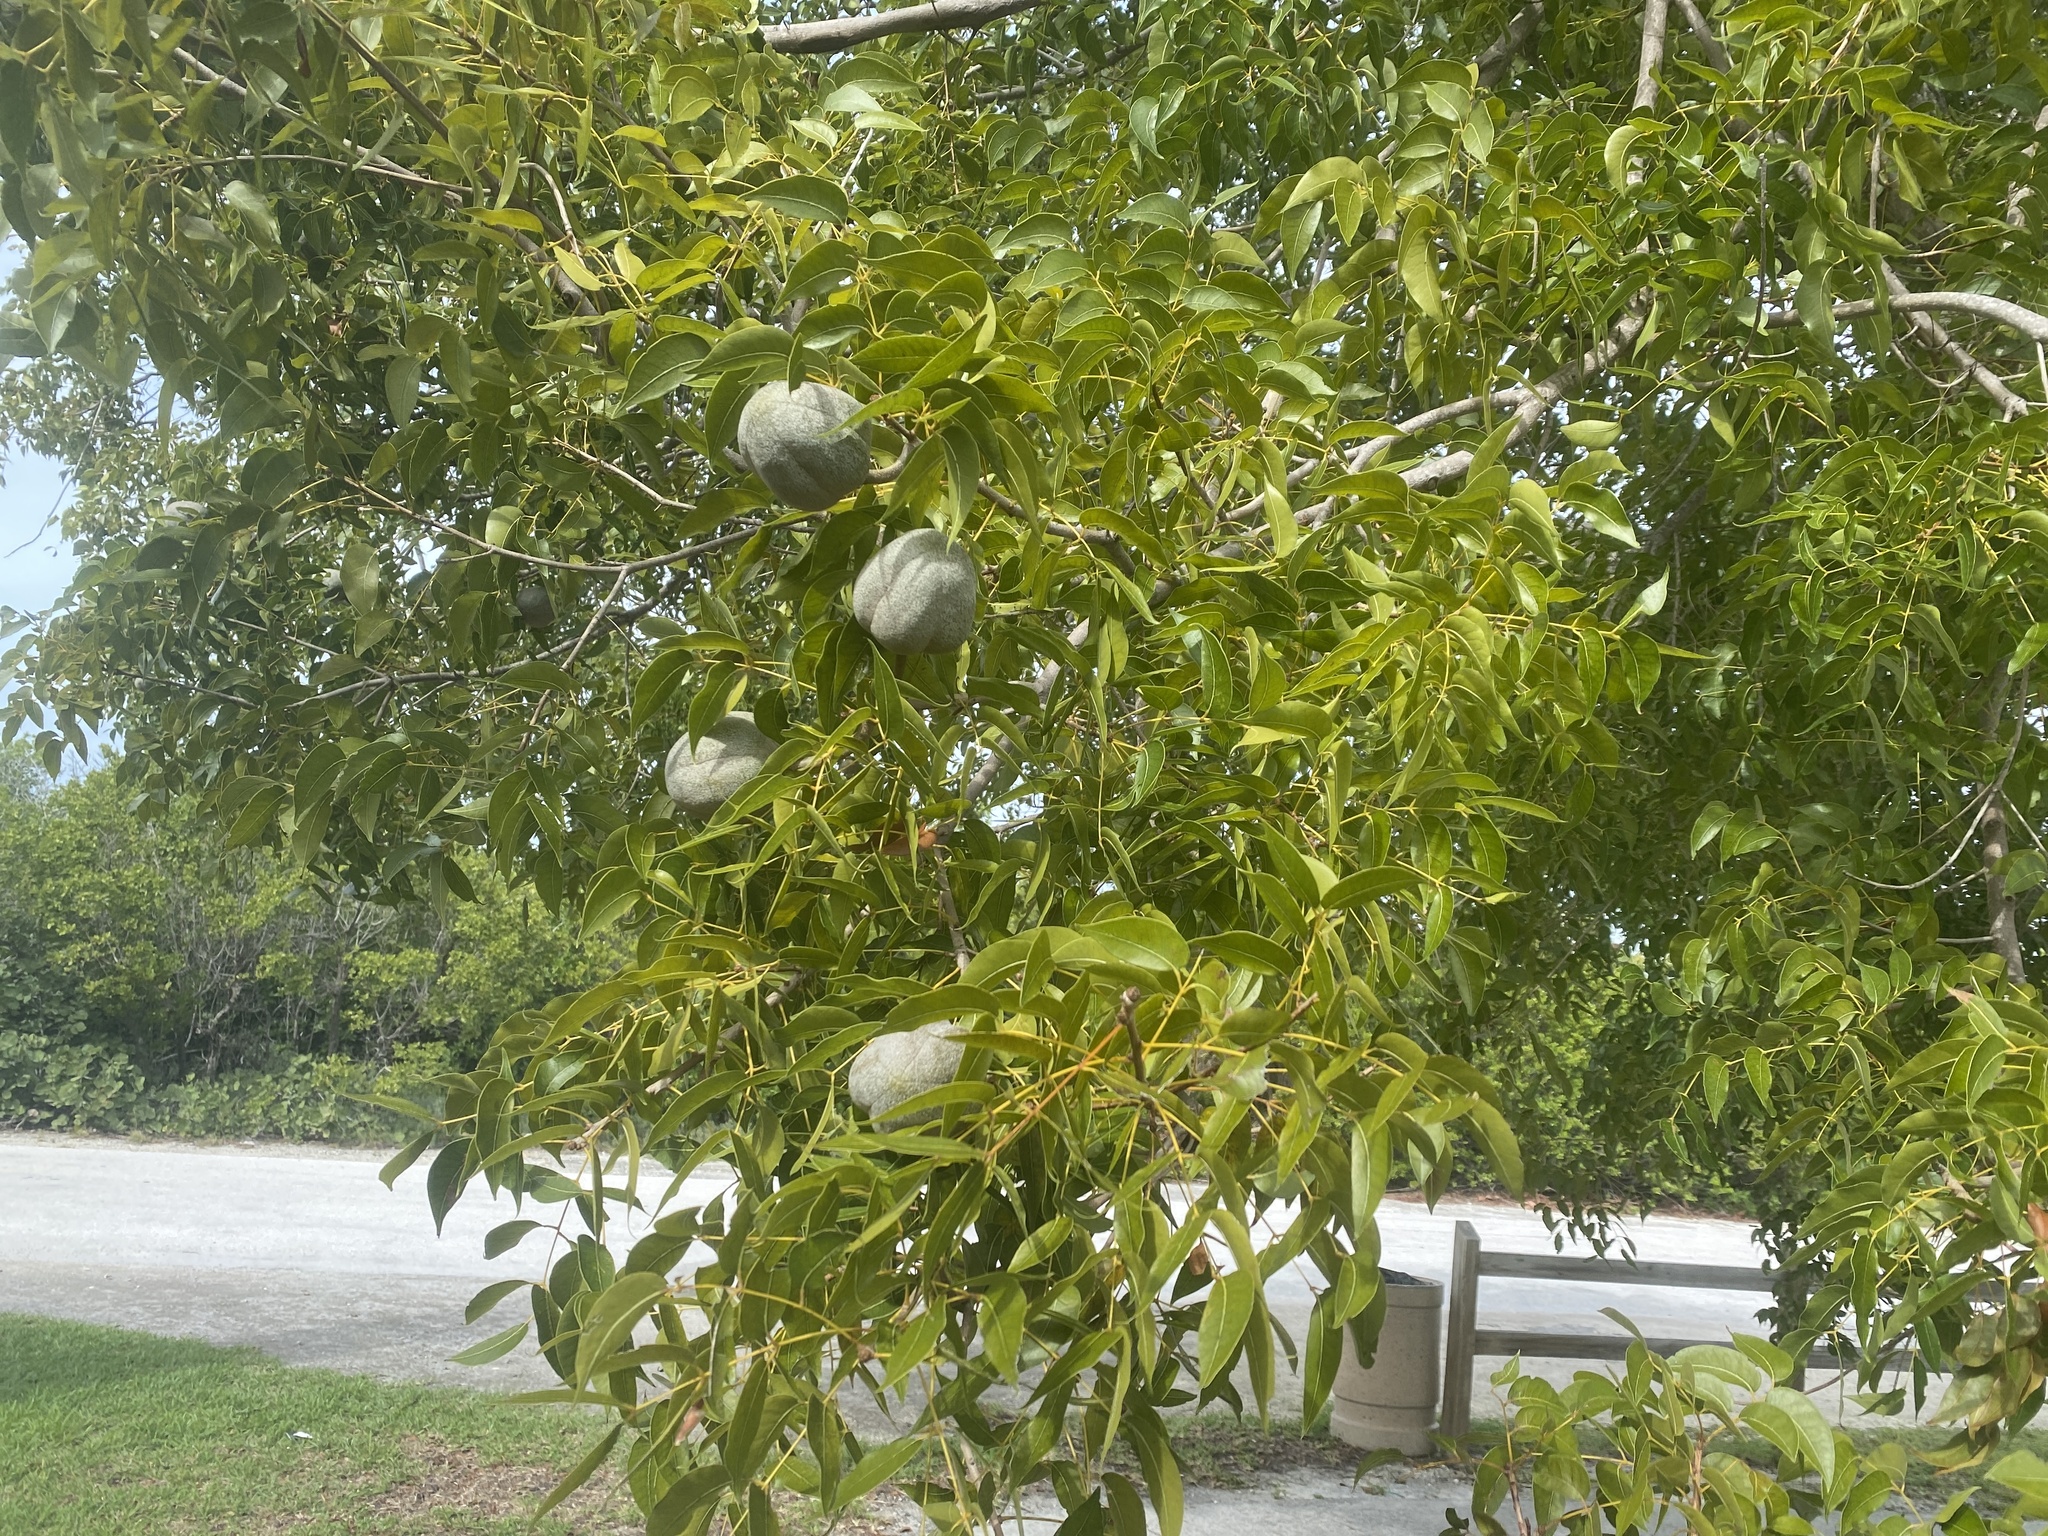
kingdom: Plantae
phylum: Tracheophyta
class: Magnoliopsida
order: Sapindales
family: Meliaceae
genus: Swietenia
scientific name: Swietenia mahagoni
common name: West indian mahogany
